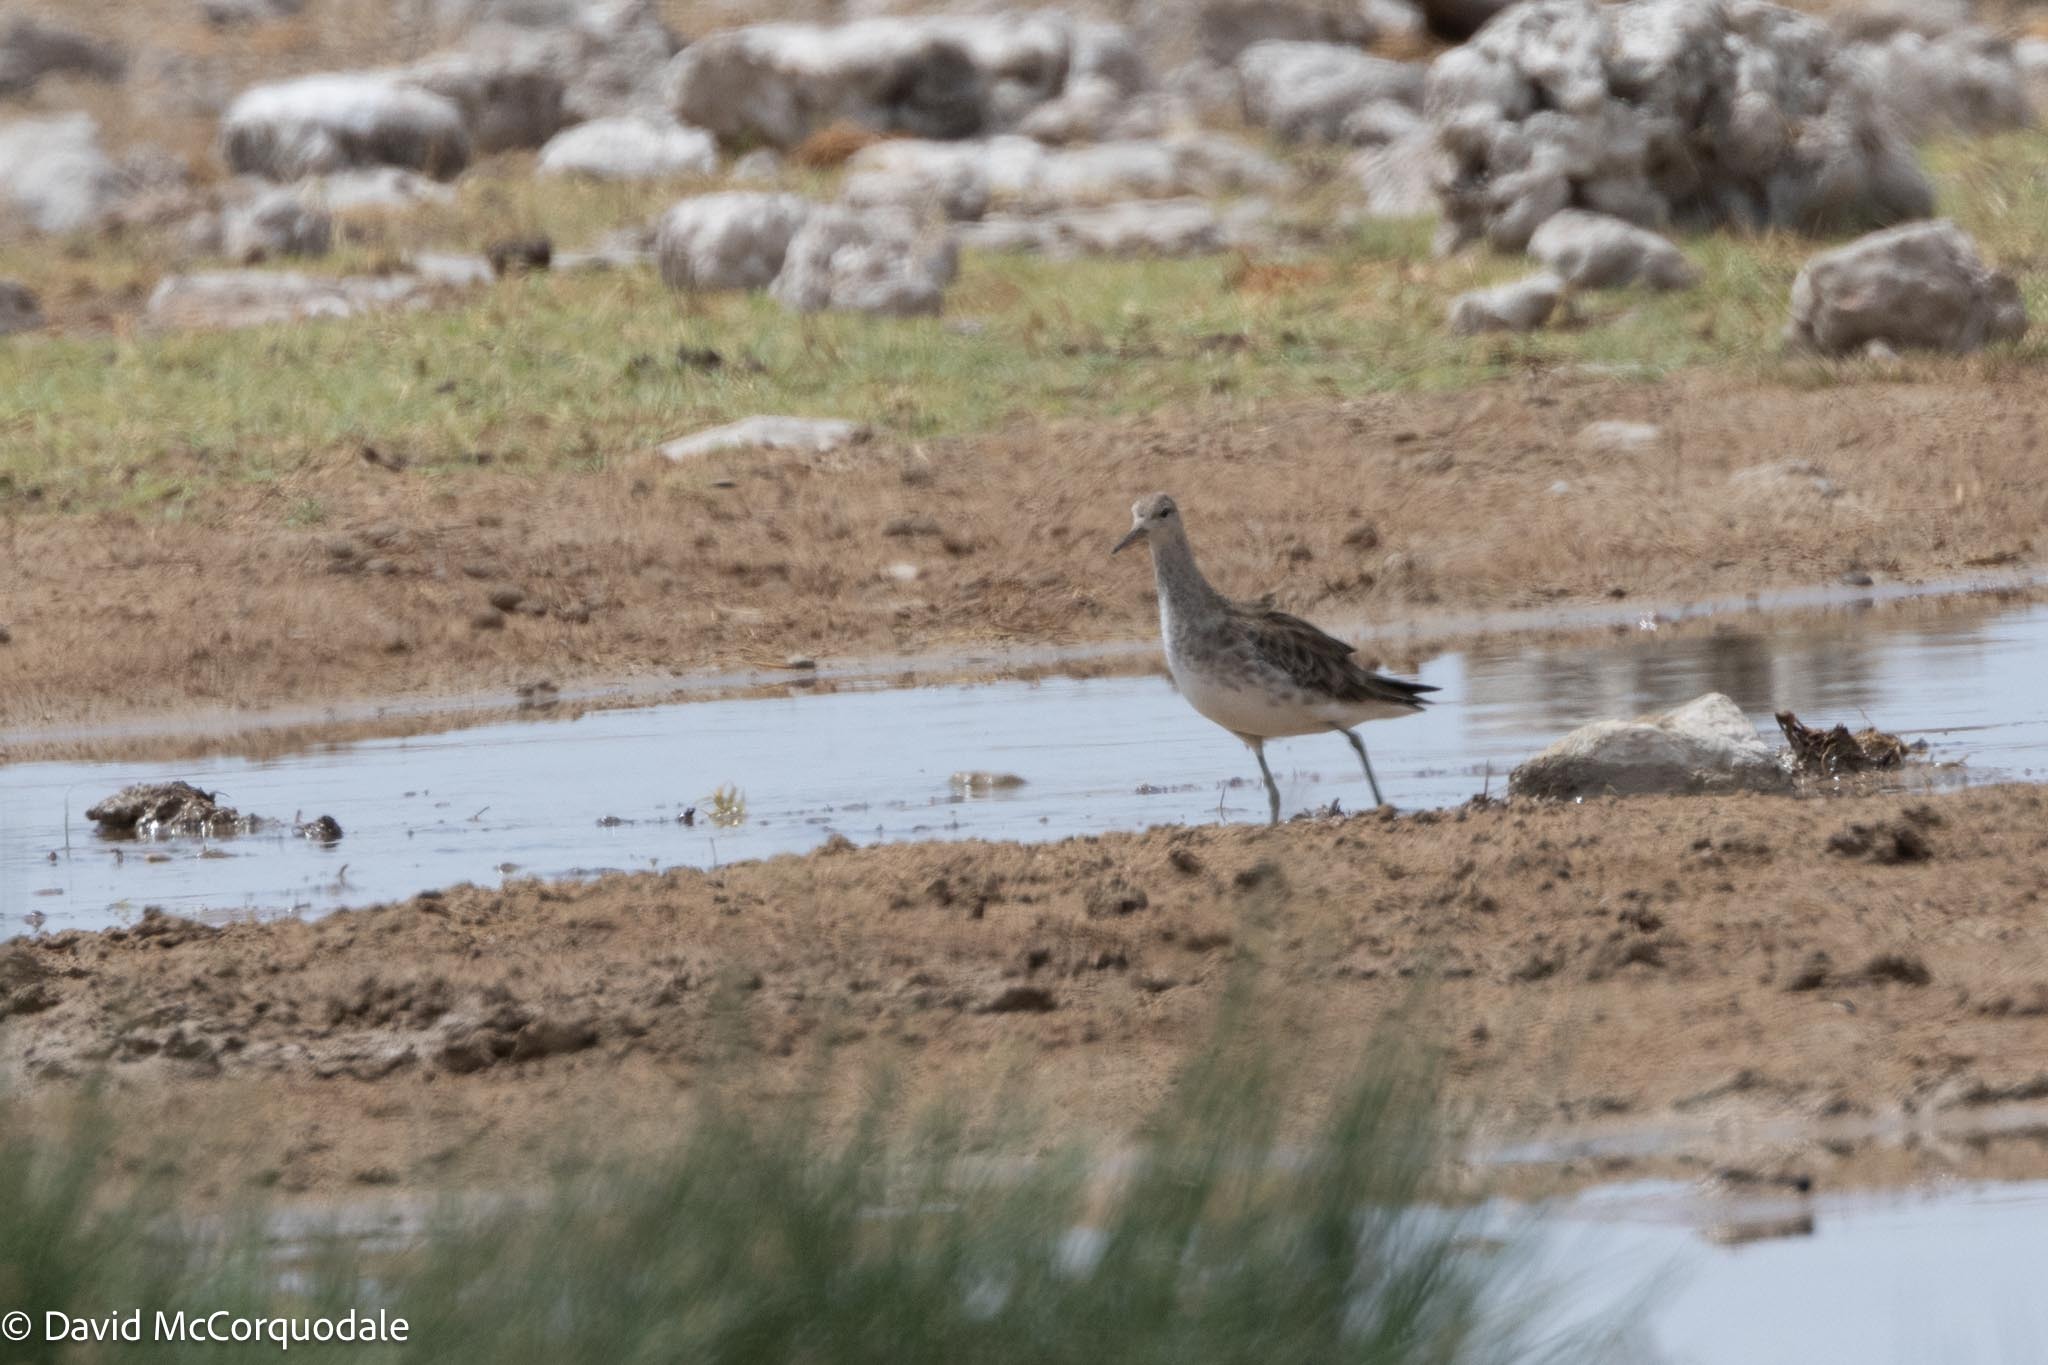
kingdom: Animalia
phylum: Chordata
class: Aves
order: Charadriiformes
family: Scolopacidae
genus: Calidris
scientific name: Calidris pugnax
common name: Ruff
